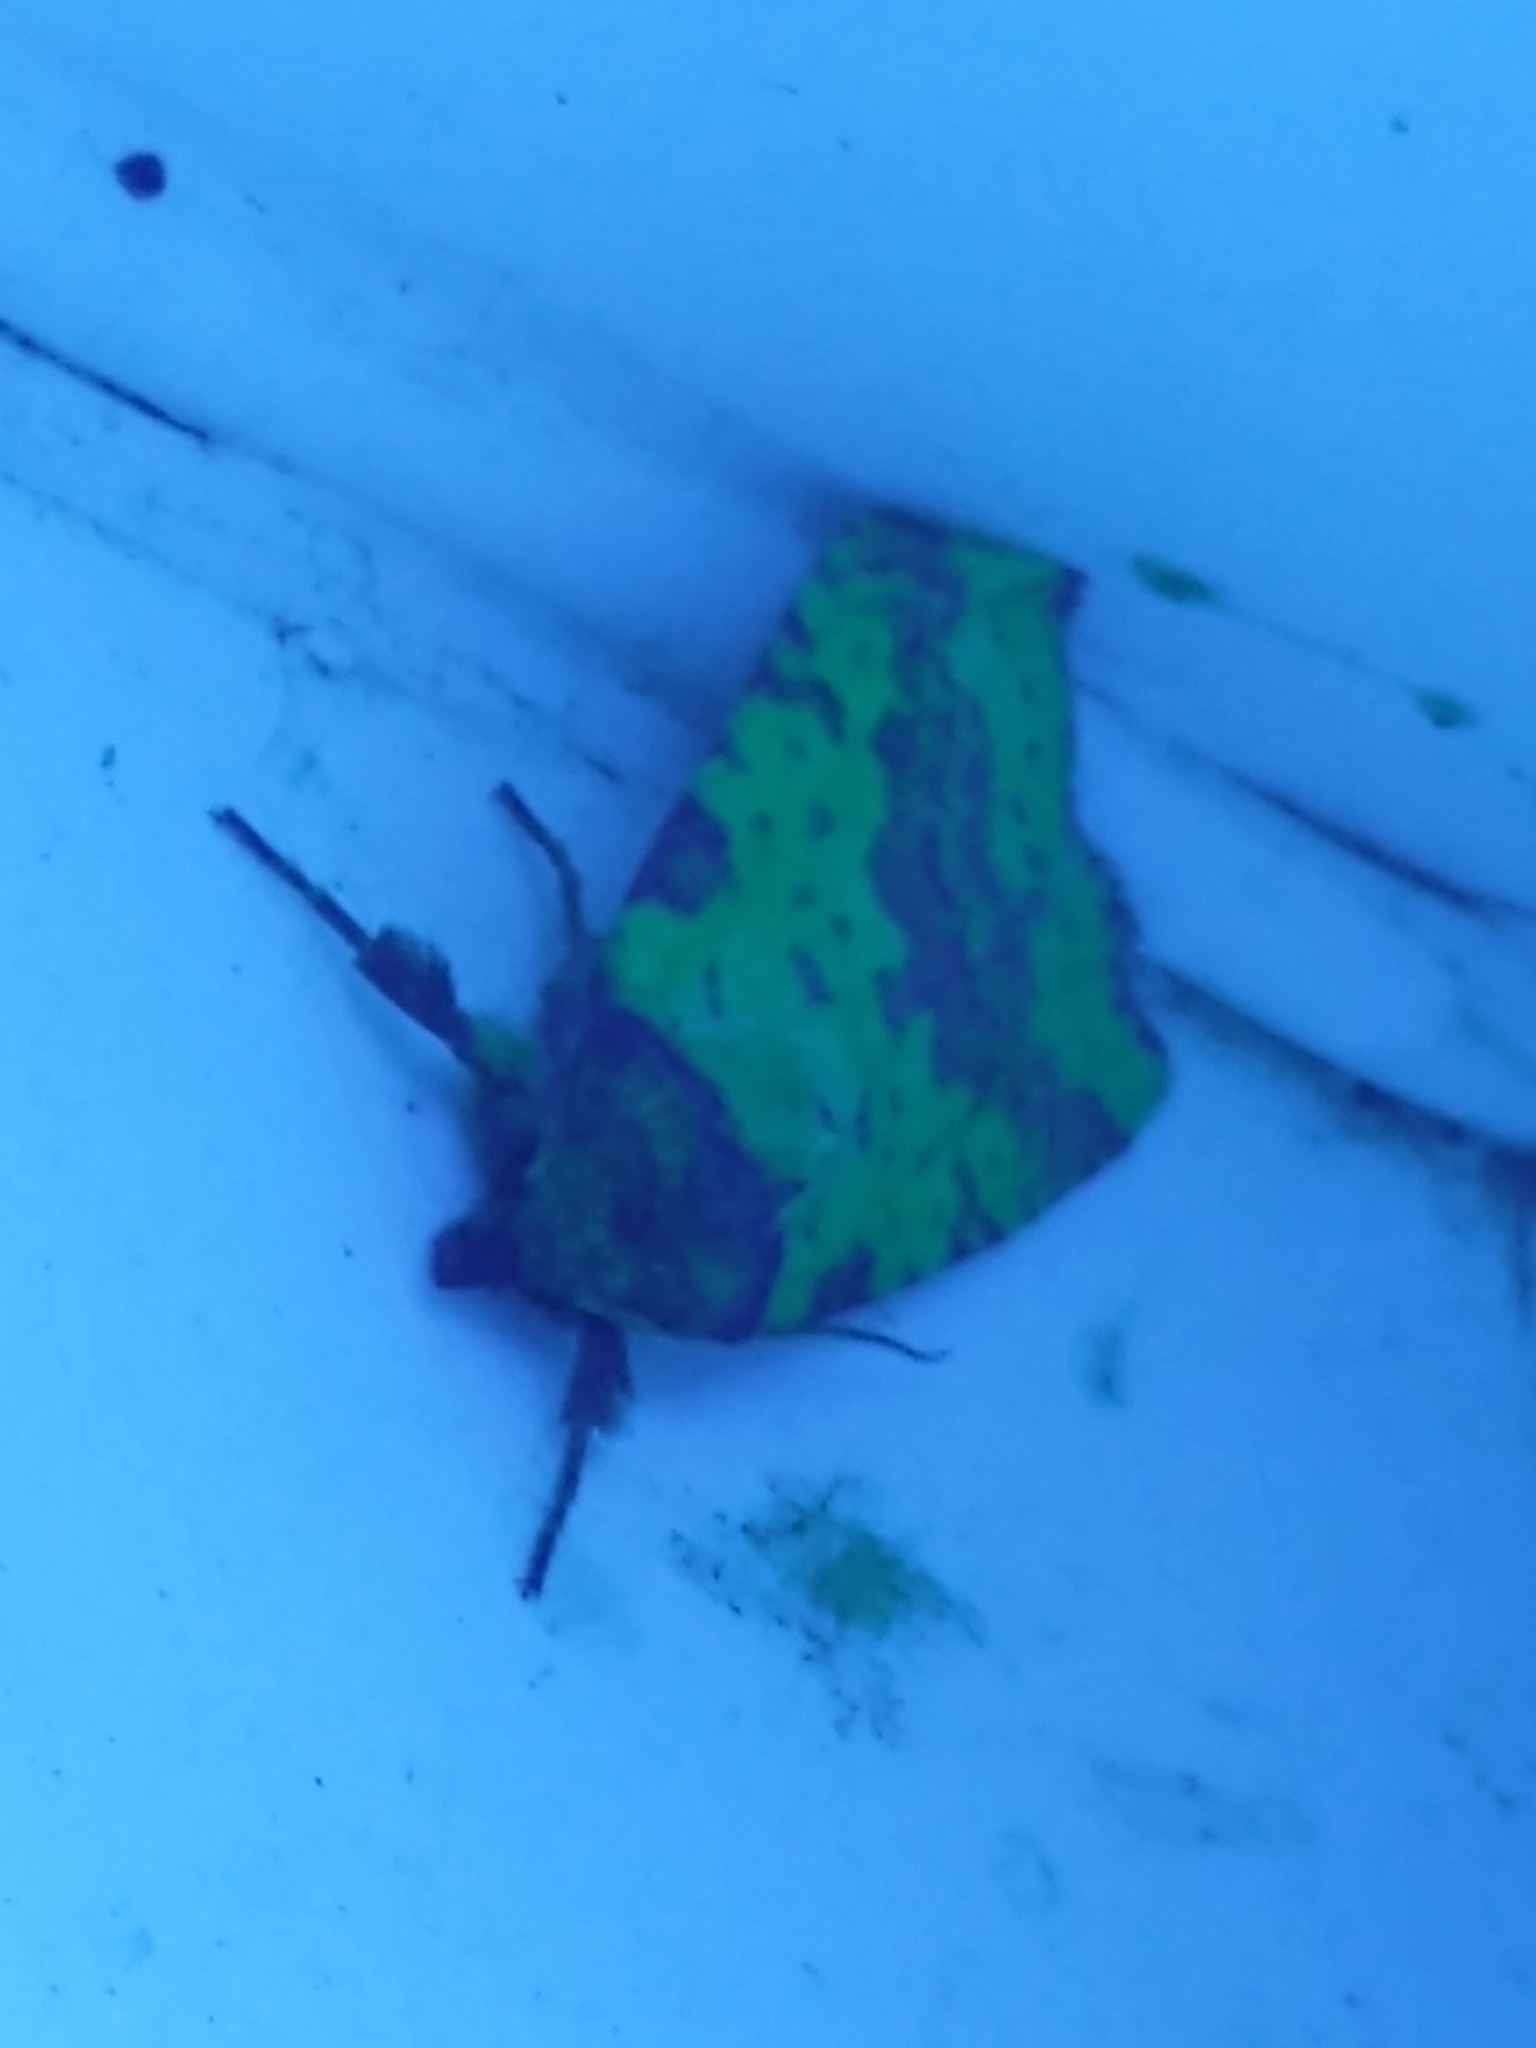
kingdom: Animalia
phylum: Arthropoda
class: Insecta
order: Lepidoptera
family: Noctuidae
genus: Xanthia
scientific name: Xanthia togata
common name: Pink-barred sallow
